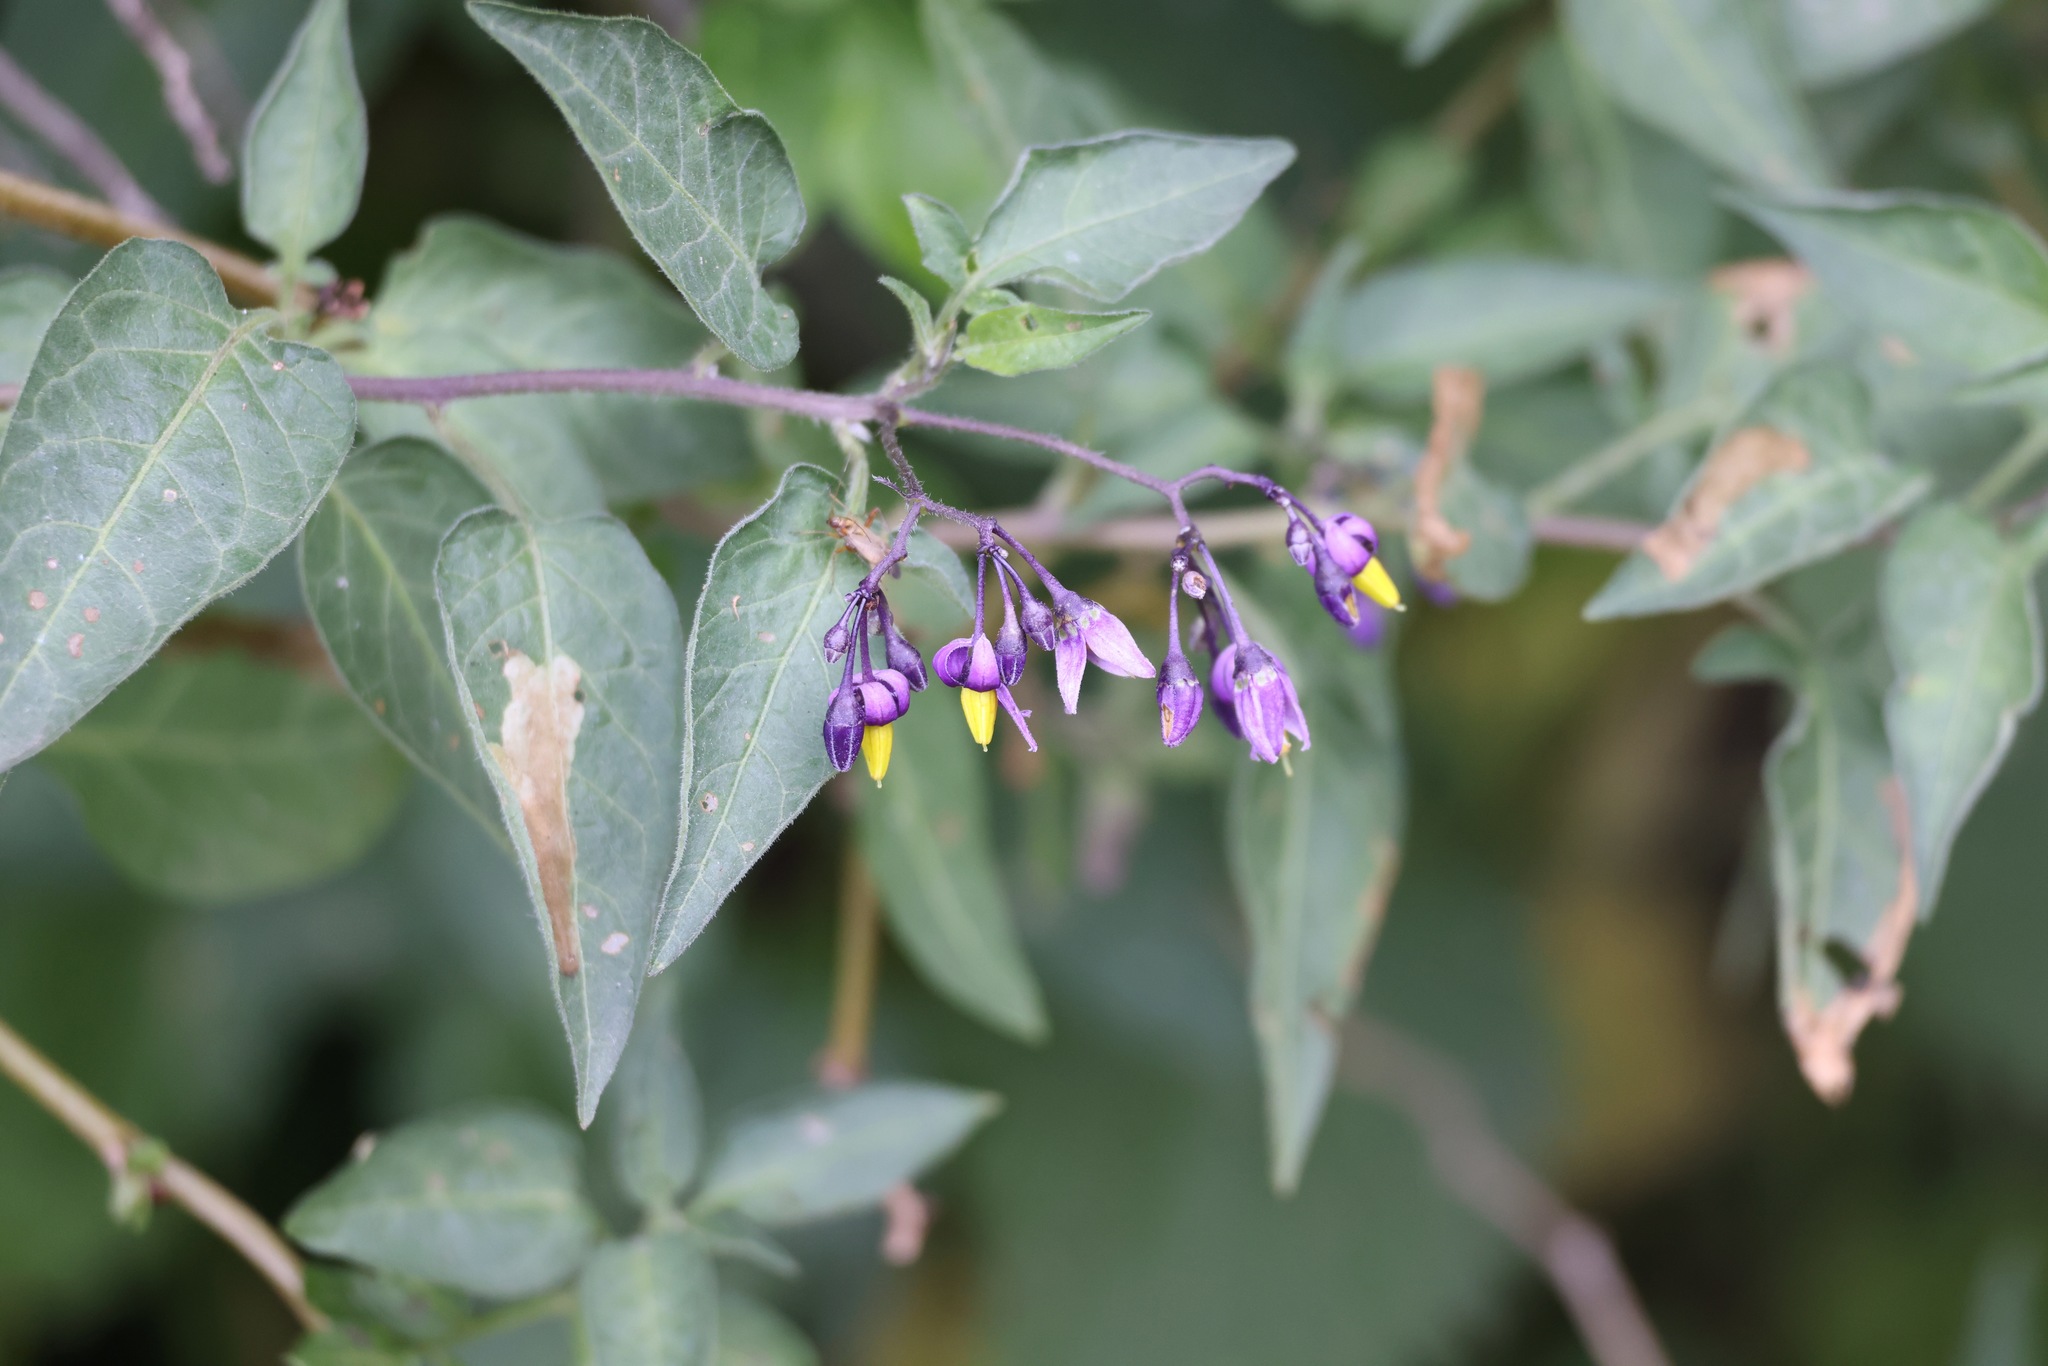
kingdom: Plantae
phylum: Tracheophyta
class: Magnoliopsida
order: Solanales
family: Solanaceae
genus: Solanum
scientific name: Solanum dulcamara
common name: Climbing nightshade
